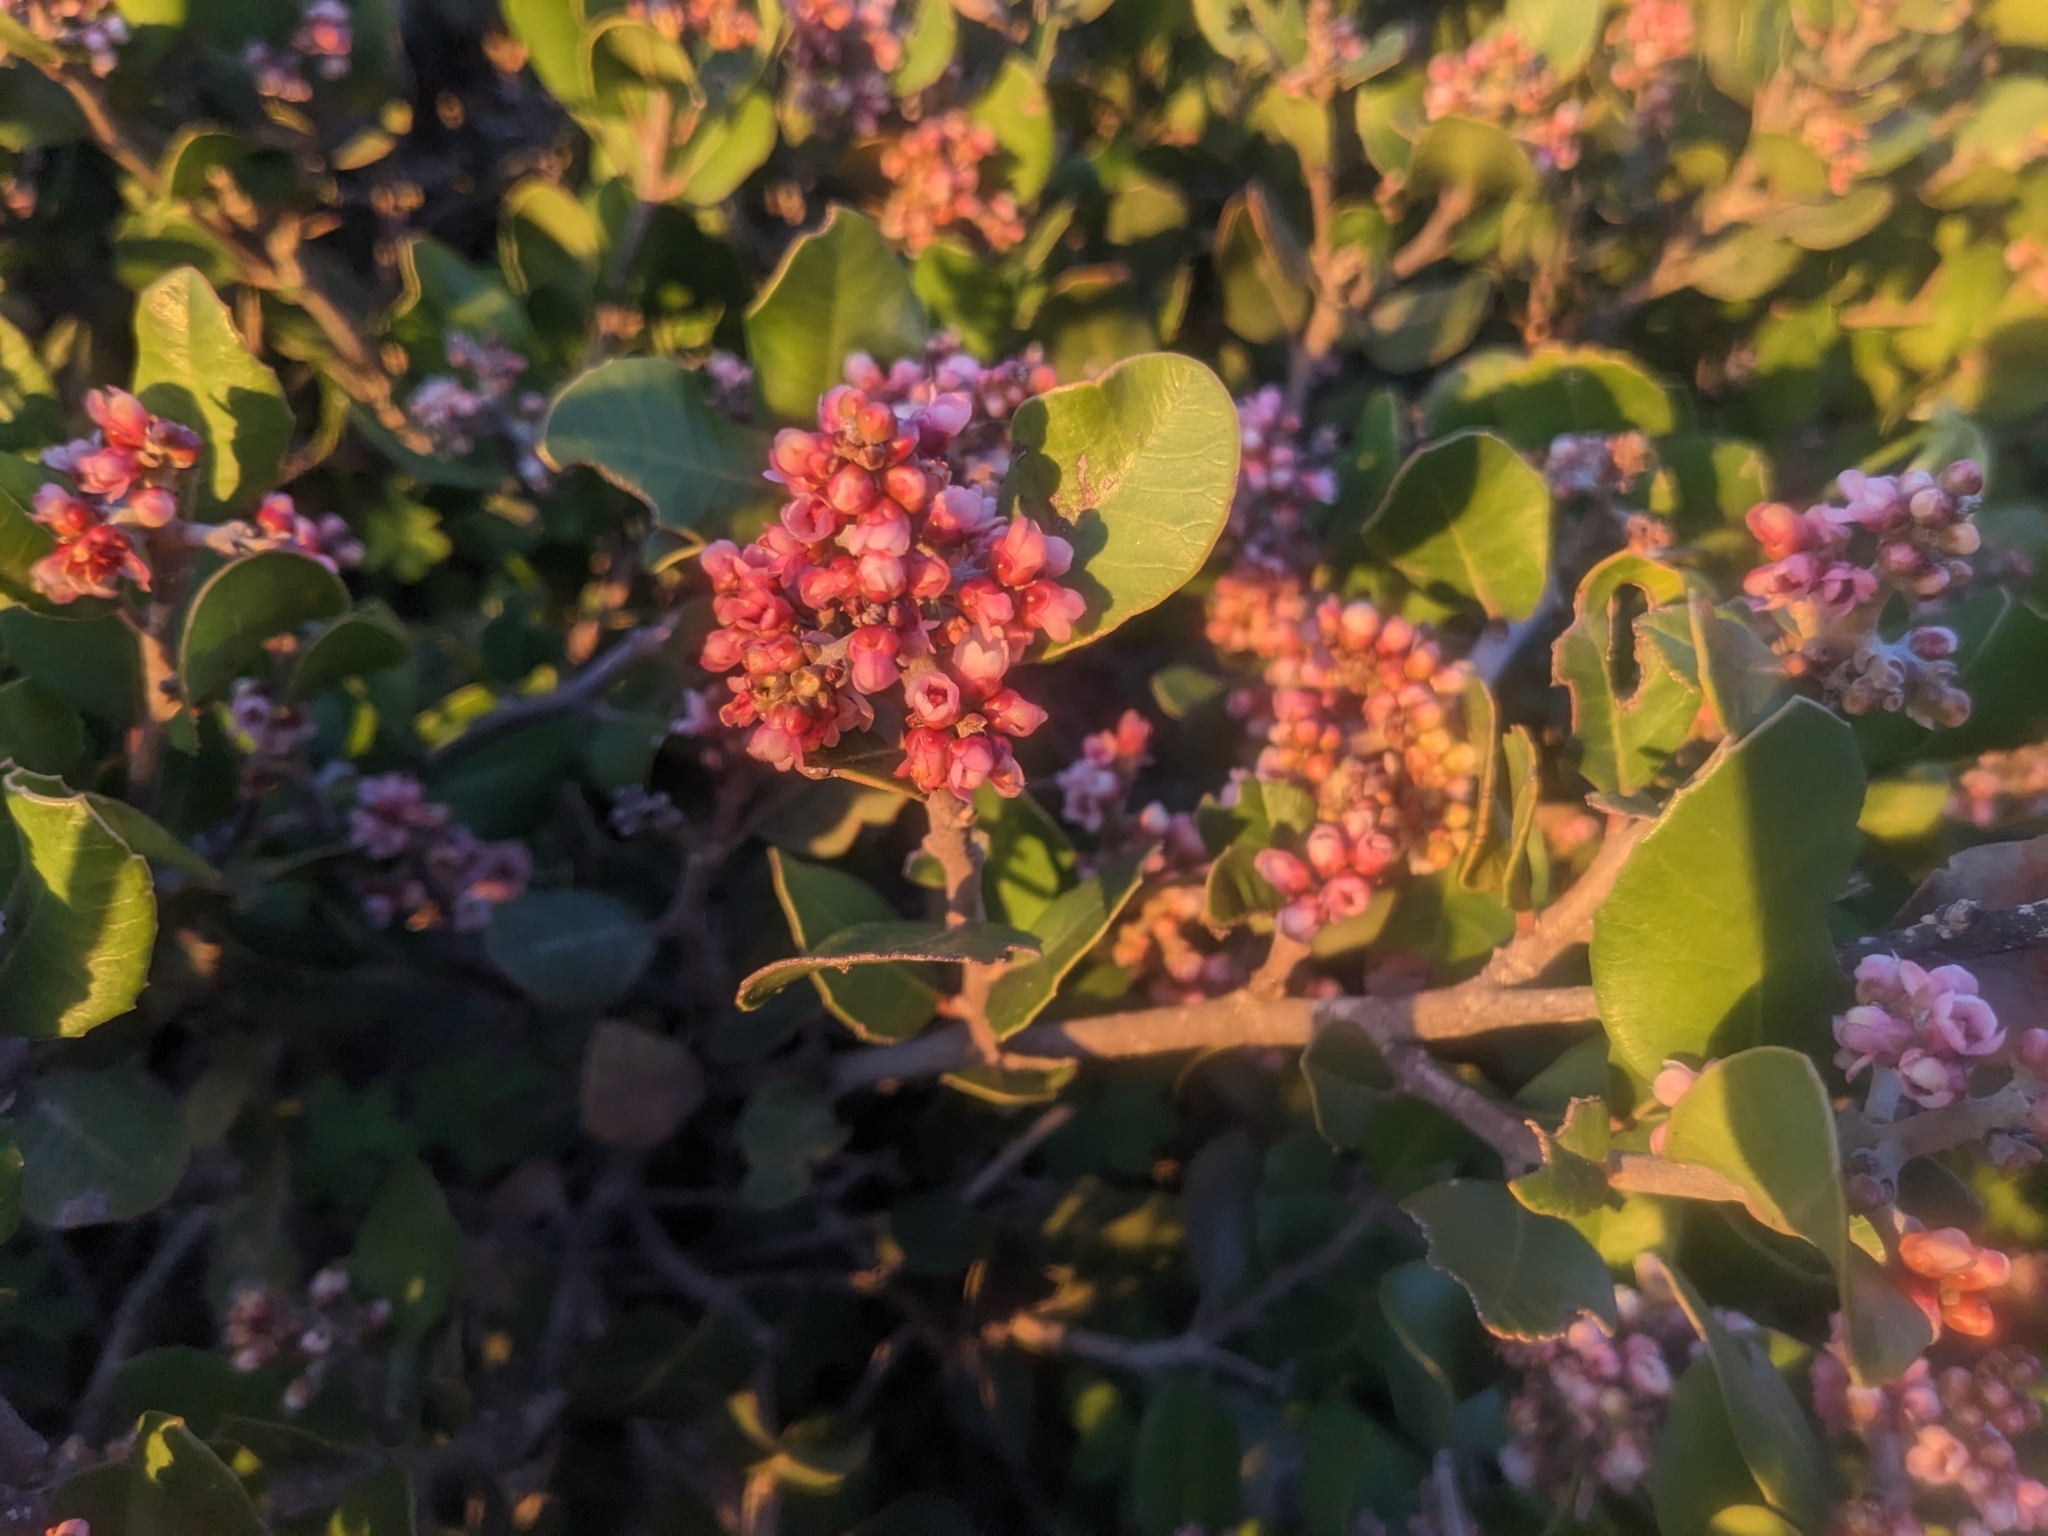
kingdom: Plantae
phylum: Tracheophyta
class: Magnoliopsida
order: Sapindales
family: Anacardiaceae
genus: Rhus
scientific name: Rhus integrifolia
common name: Lemonade sumac
